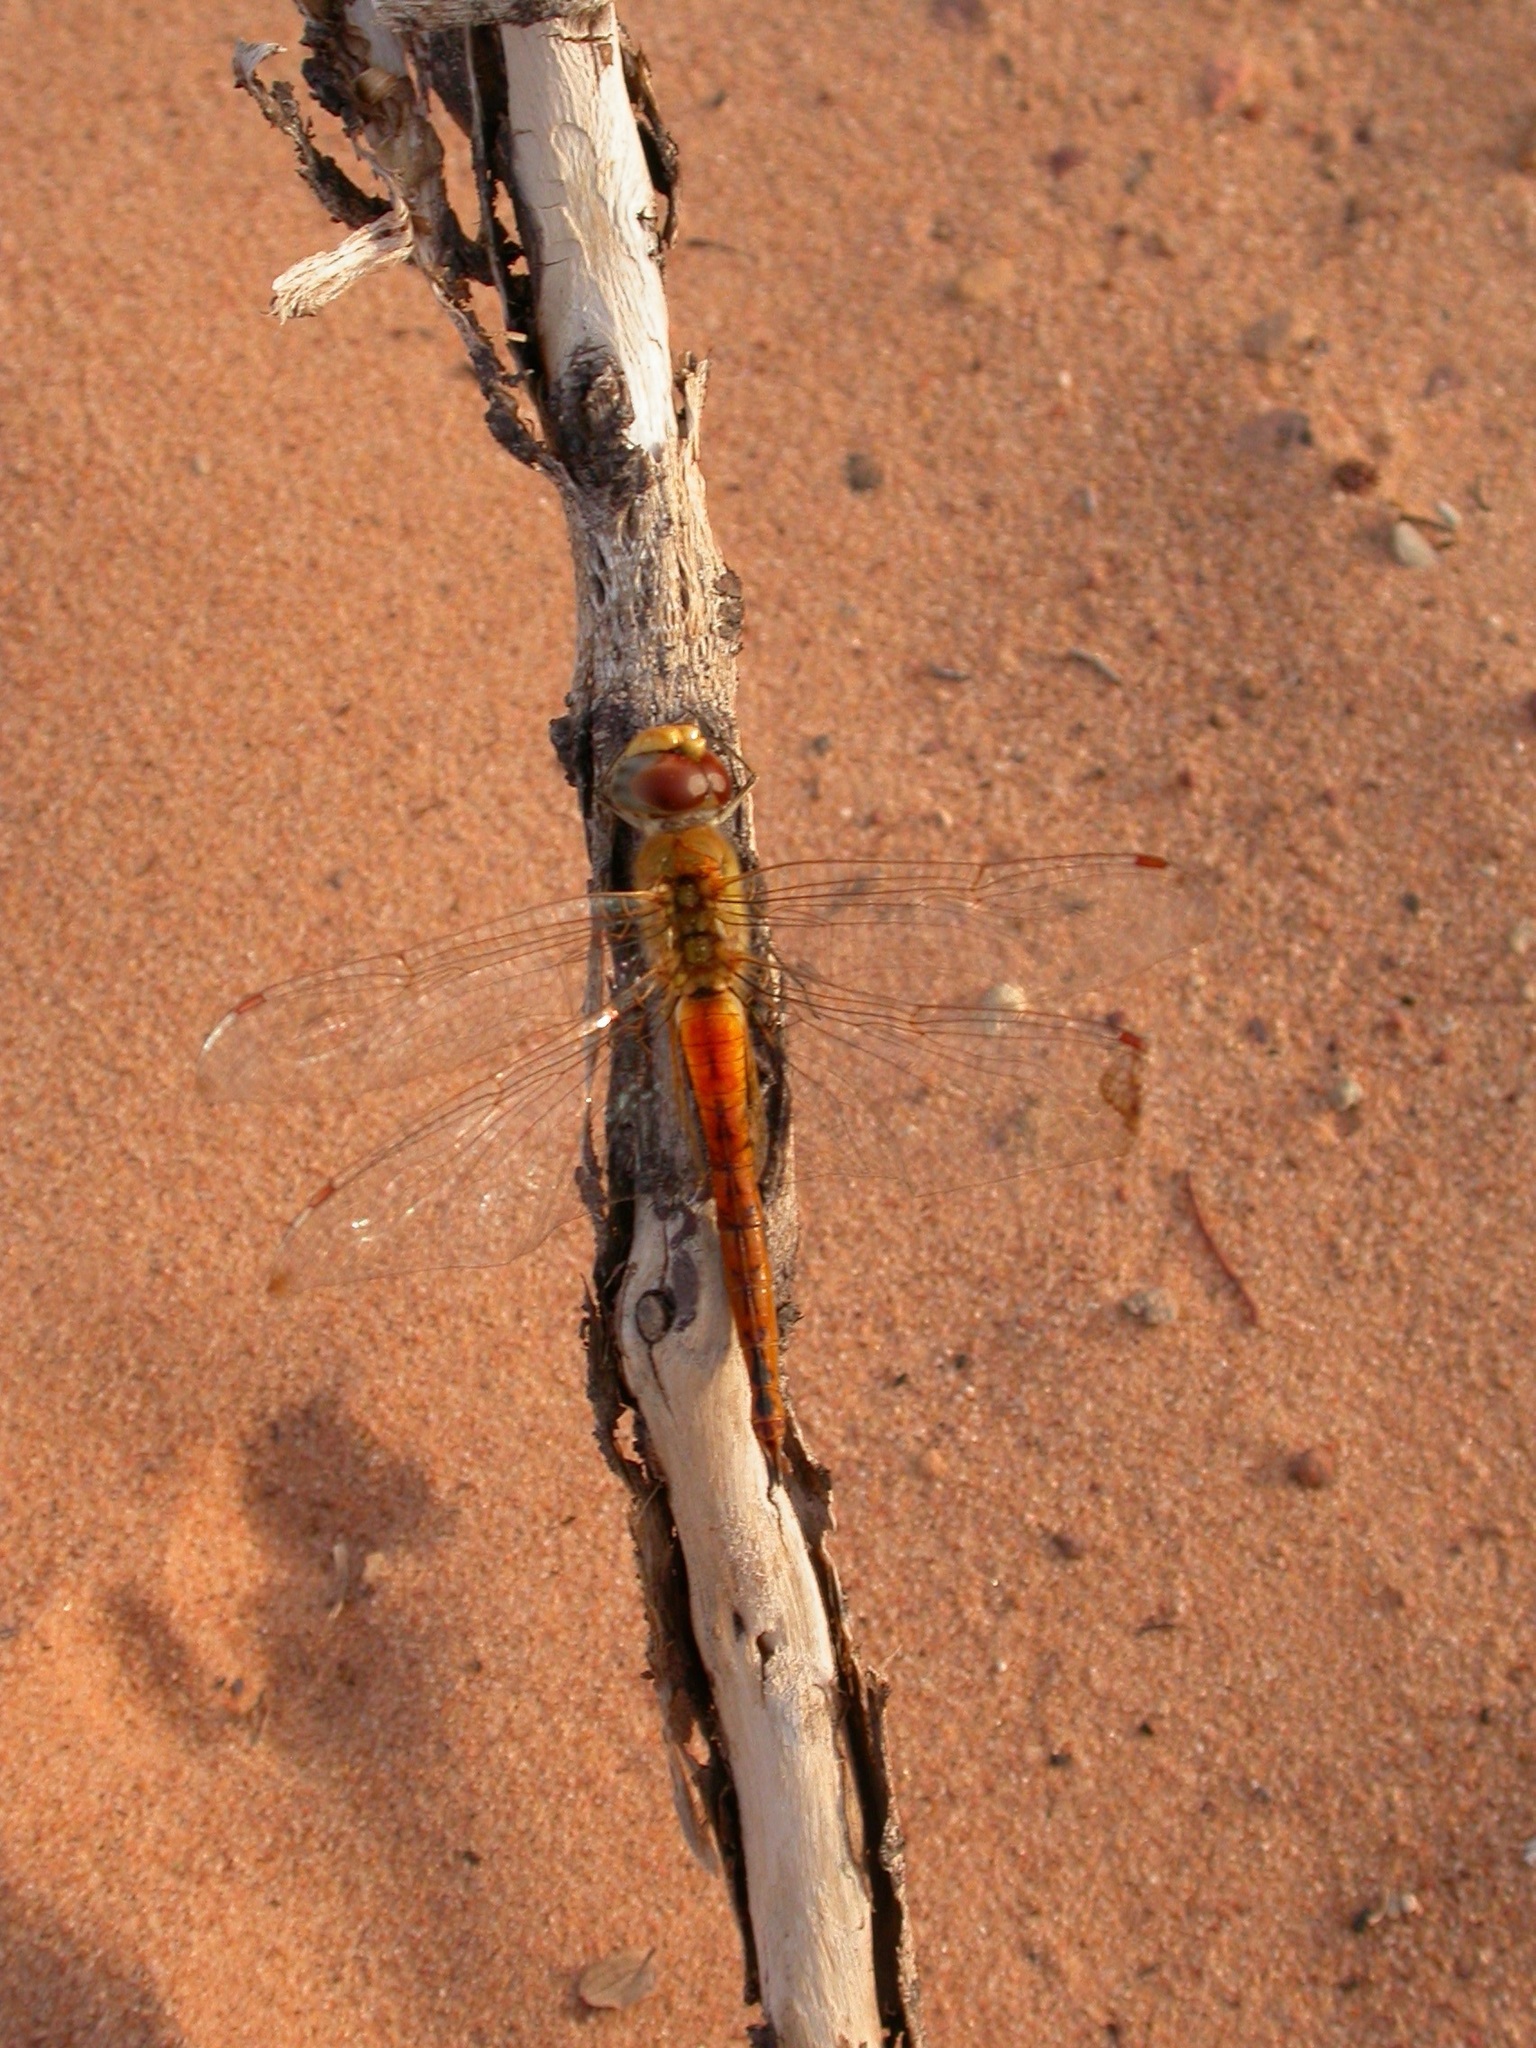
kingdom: Animalia
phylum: Arthropoda
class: Insecta
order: Odonata
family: Libellulidae
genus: Pantala
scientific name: Pantala flavescens
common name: Wandering glider
